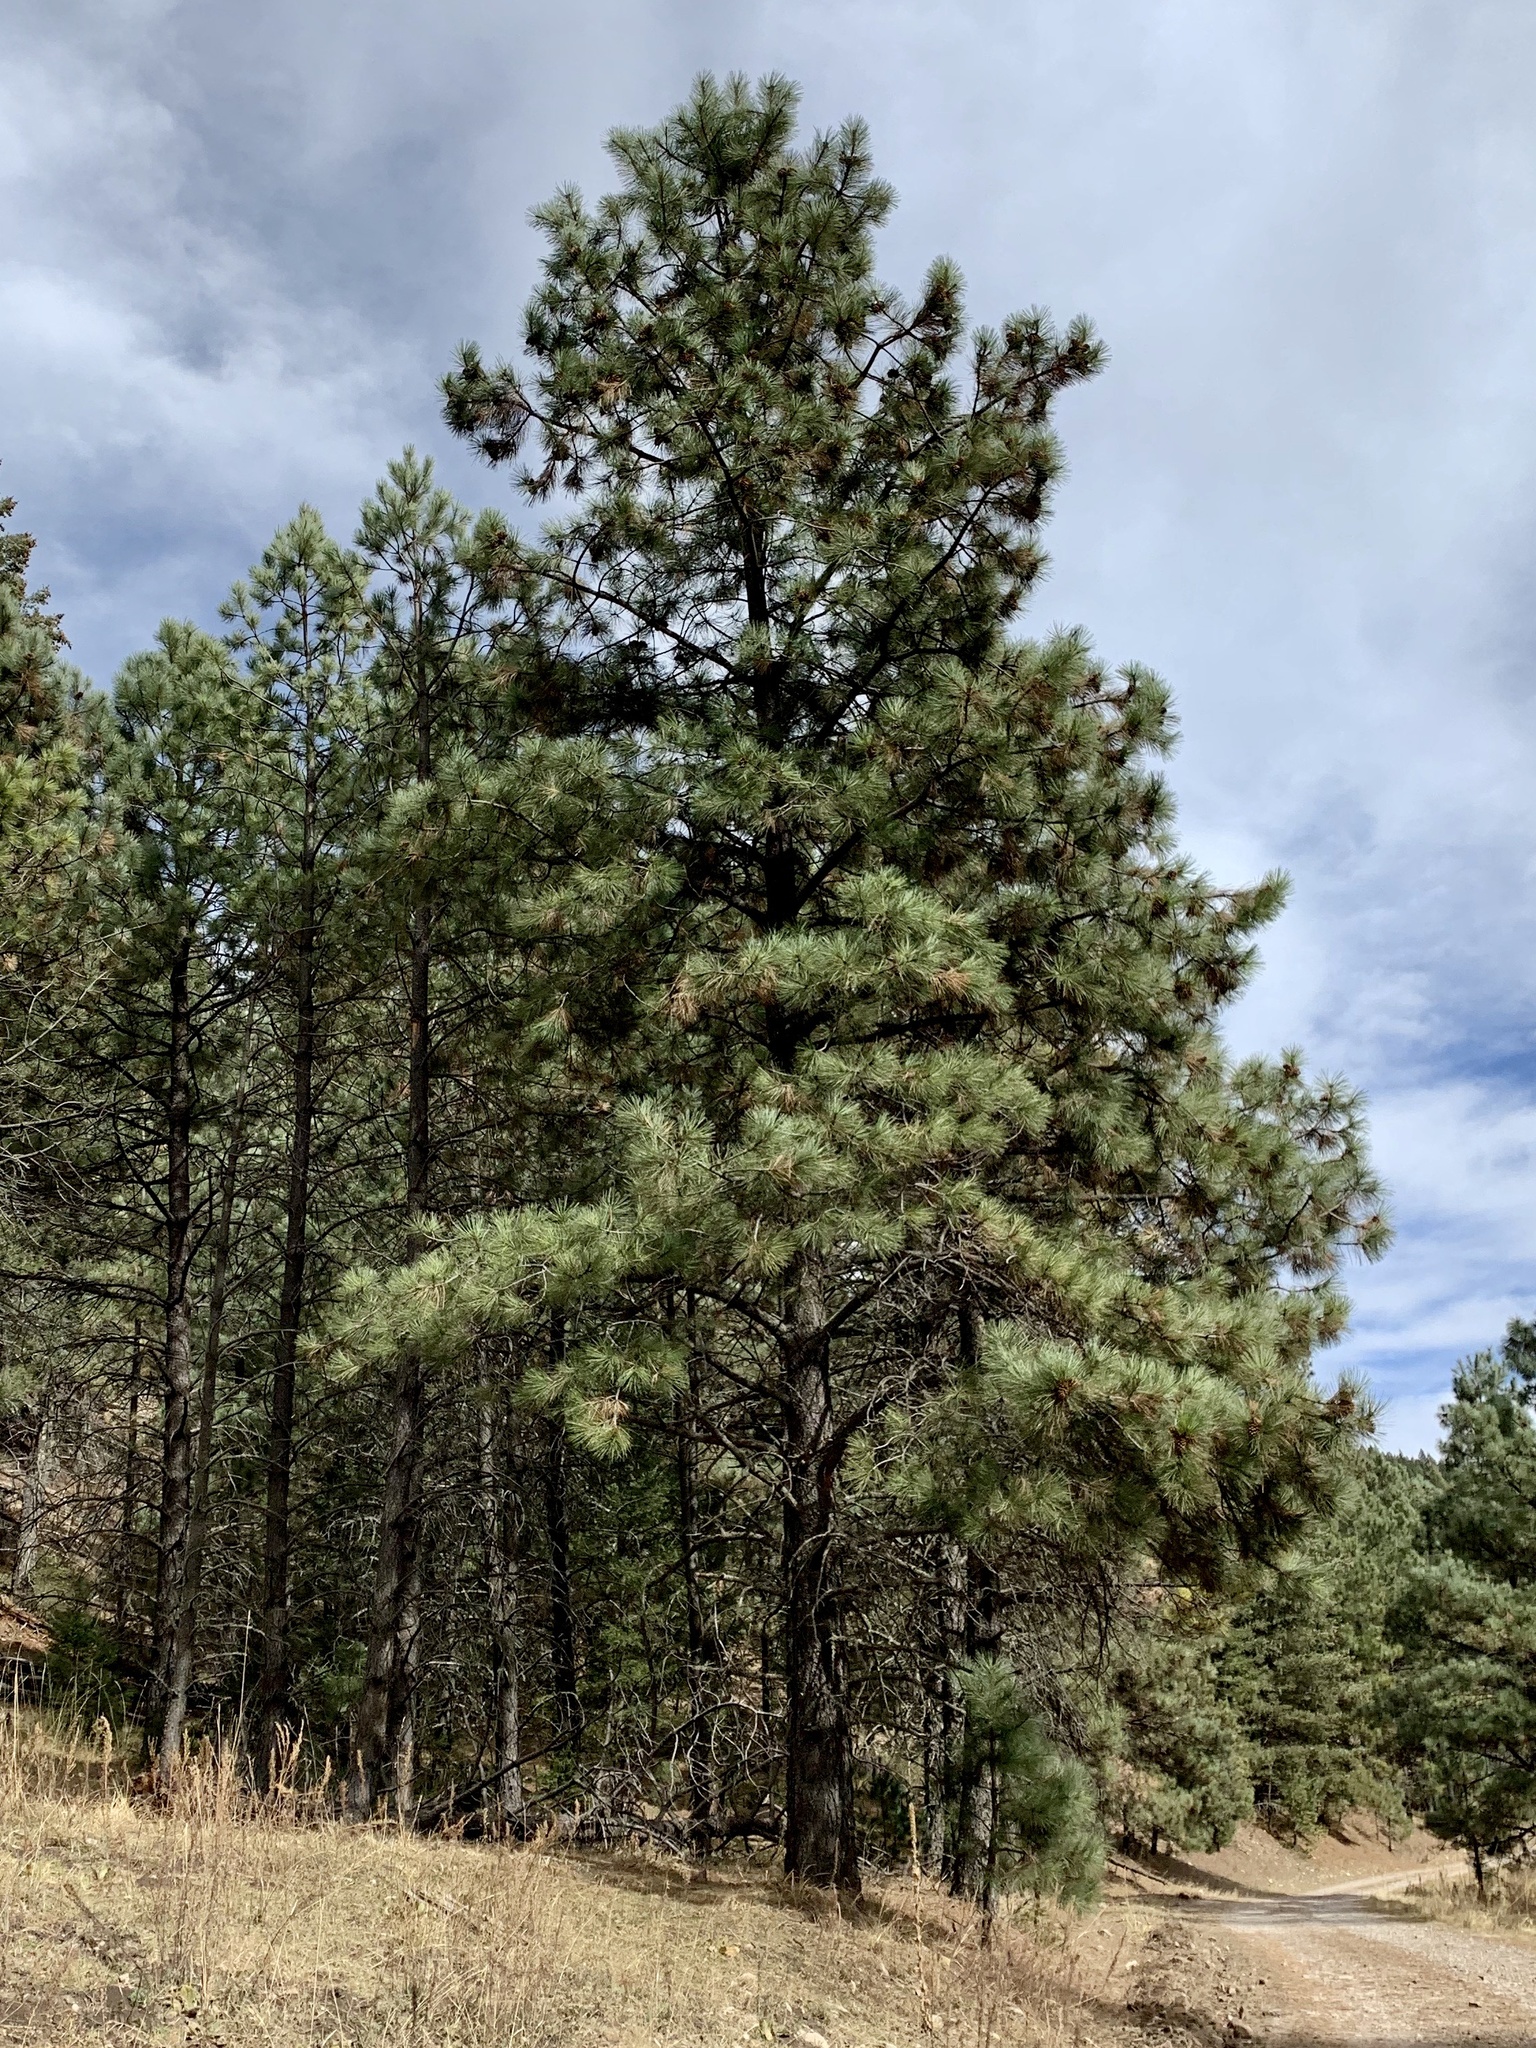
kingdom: Plantae
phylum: Tracheophyta
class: Pinopsida
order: Pinales
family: Pinaceae
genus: Pinus
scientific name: Pinus ponderosa
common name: Western yellow-pine
